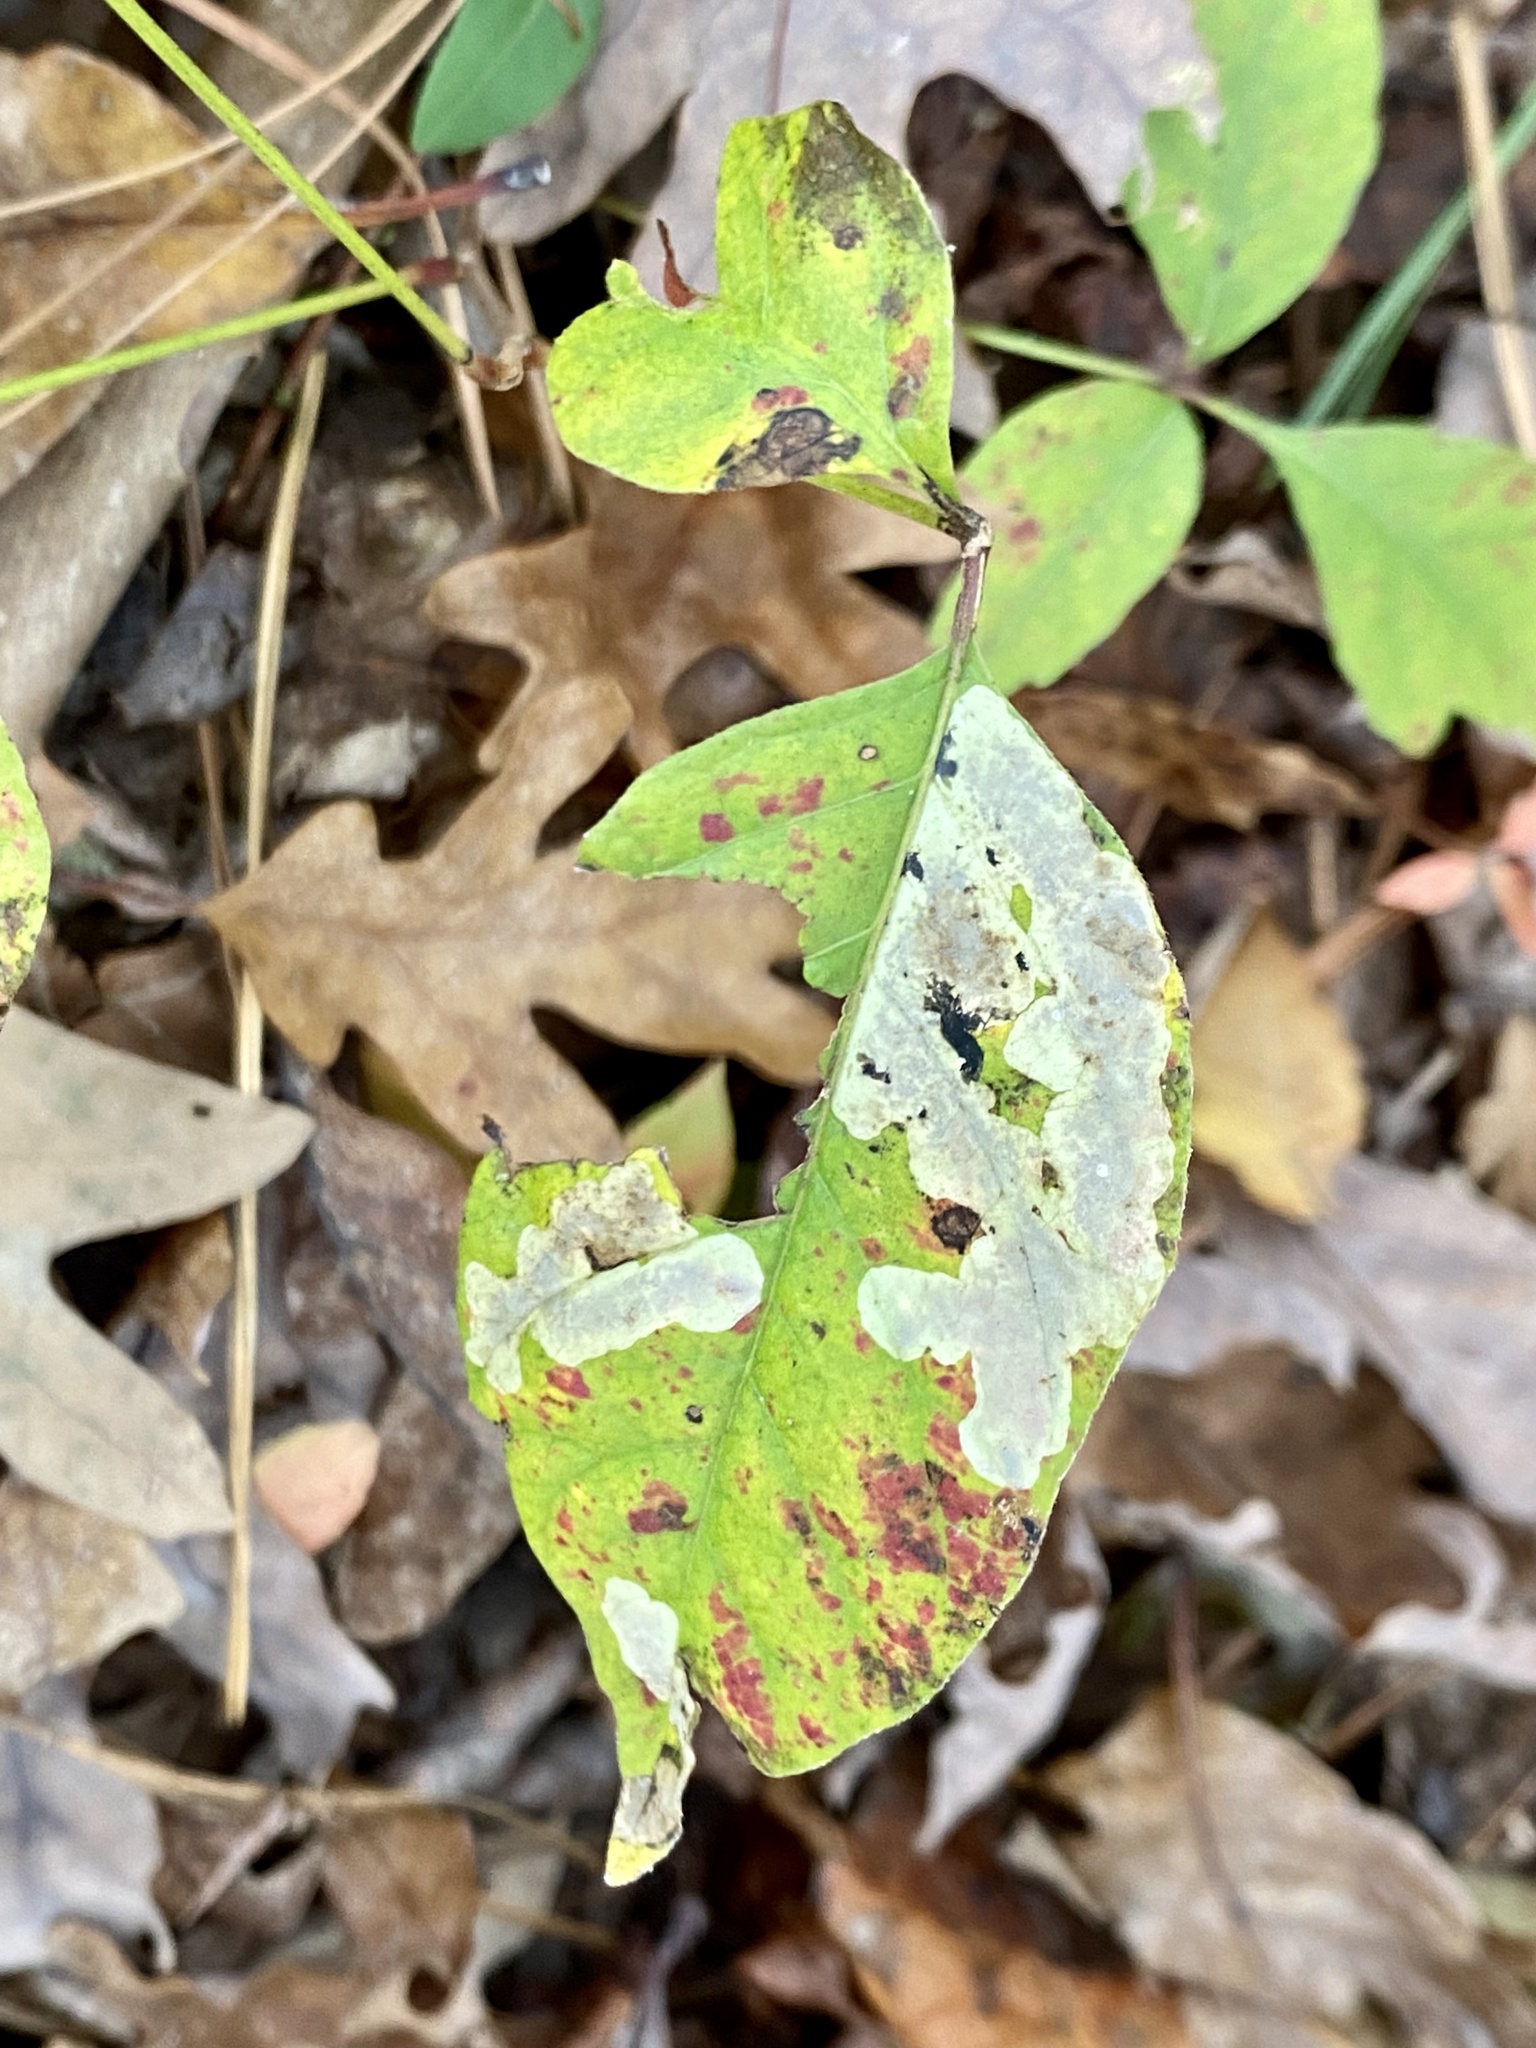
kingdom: Animalia
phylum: Arthropoda
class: Insecta
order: Lepidoptera
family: Gracillariidae
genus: Cameraria
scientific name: Cameraria guttifinitella
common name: Poison ivy leaf-miner moth
